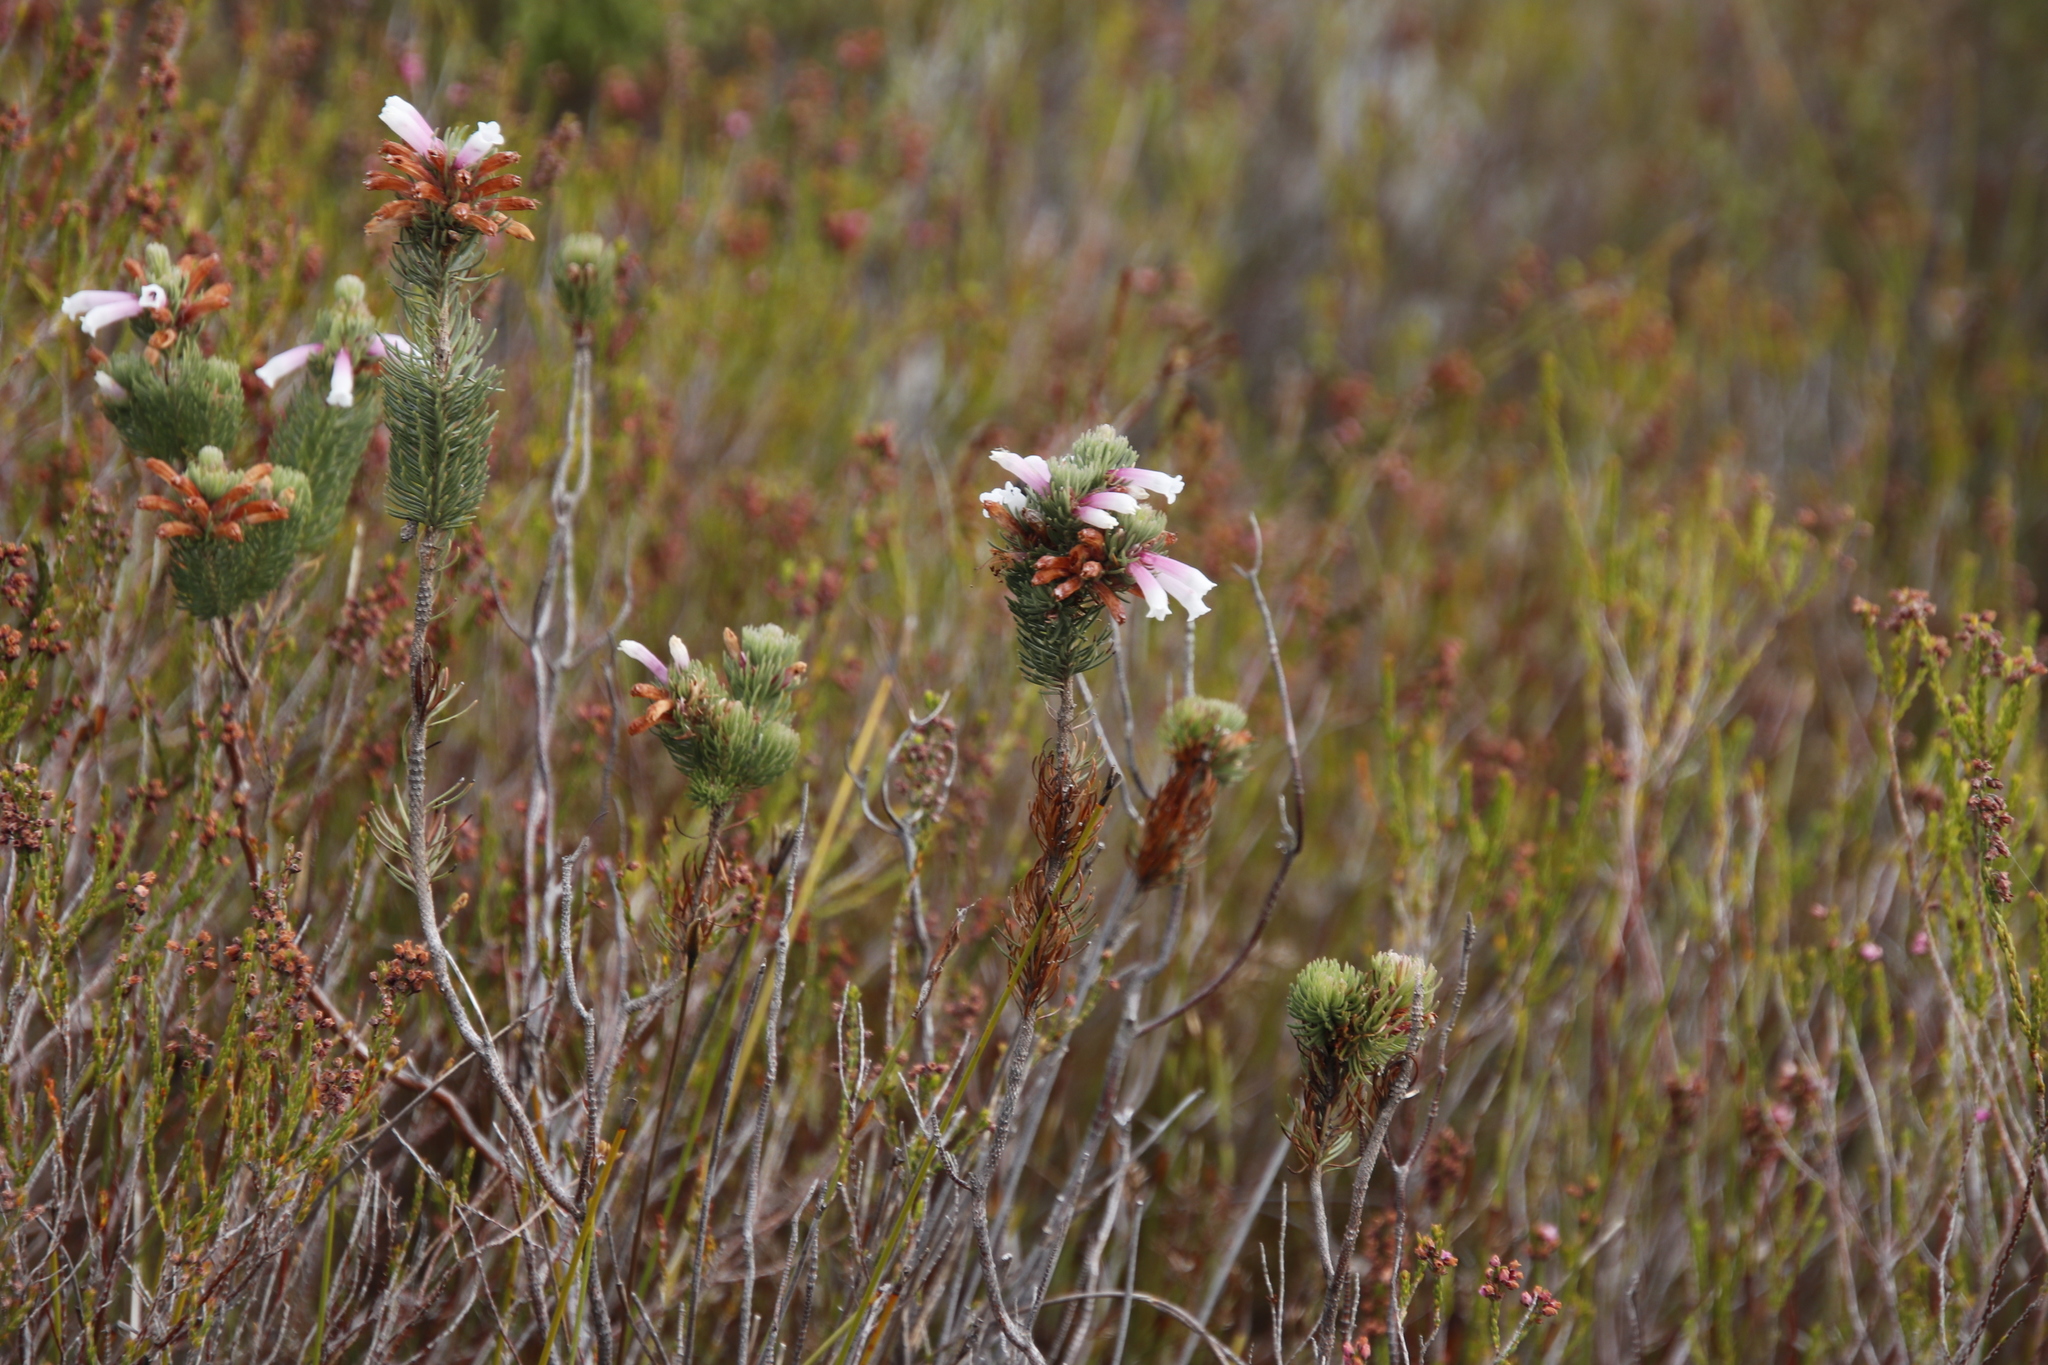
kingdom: Plantae
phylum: Tracheophyta
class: Magnoliopsida
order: Ericales
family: Ericaceae
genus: Erica
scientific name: Erica viscaria
